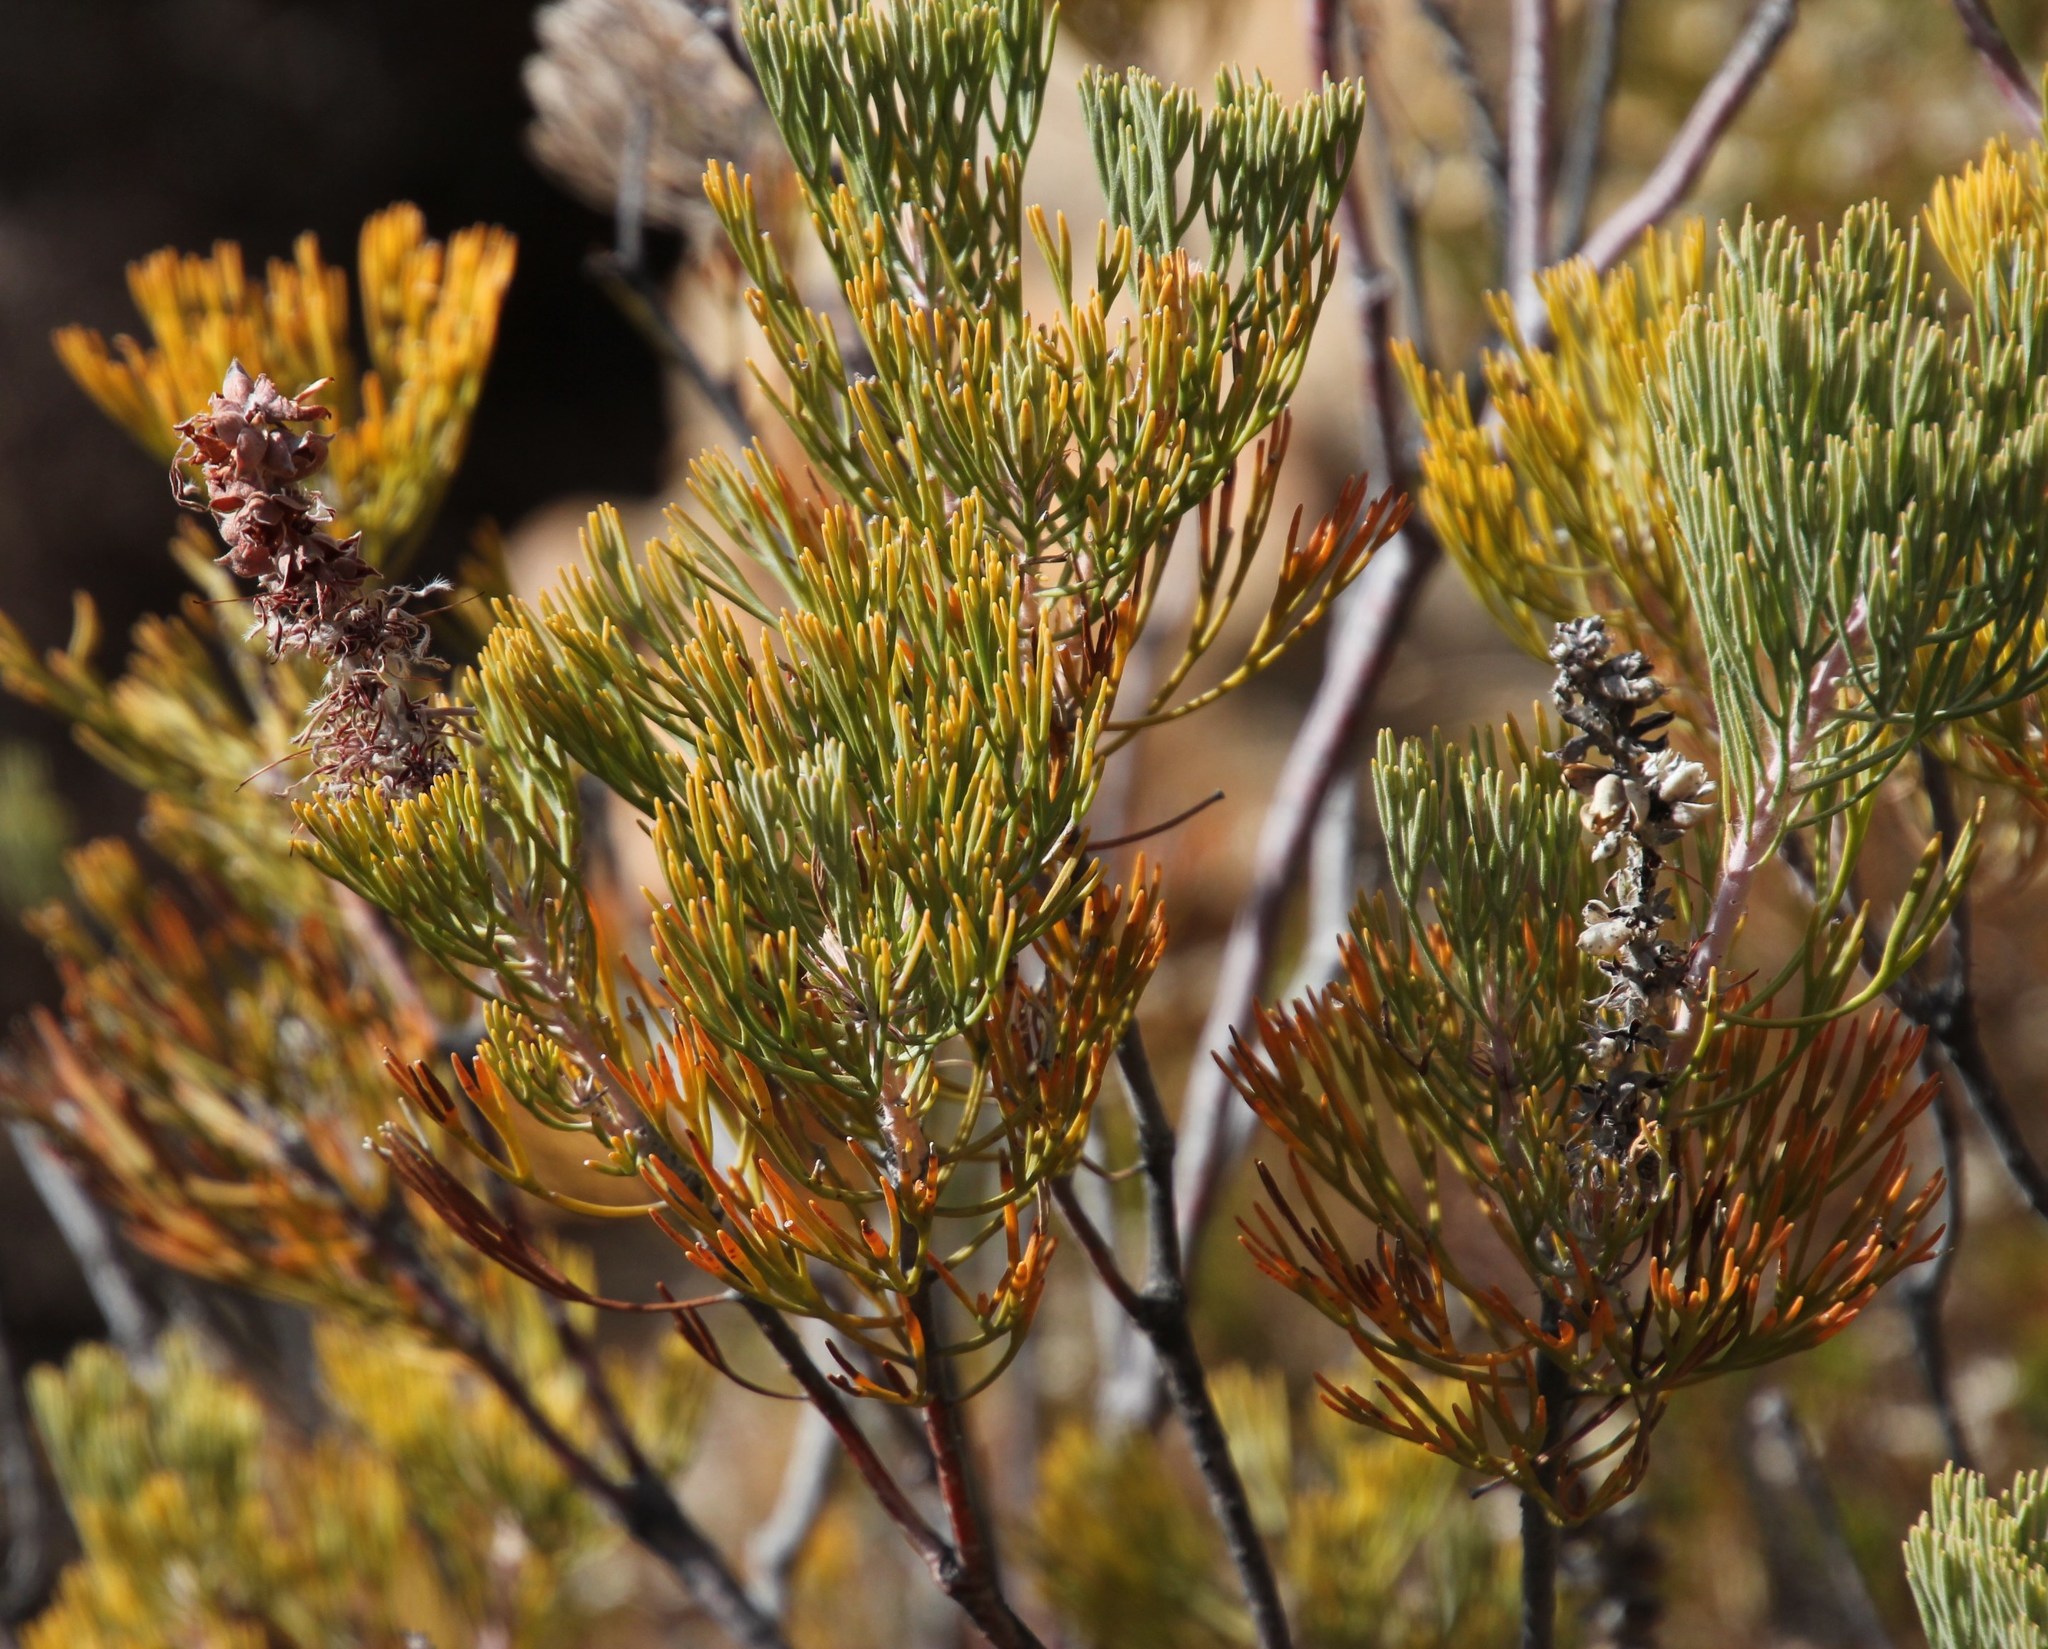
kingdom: Plantae
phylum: Tracheophyta
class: Magnoliopsida
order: Proteales
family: Proteaceae
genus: Paranomus
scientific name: Paranomus bracteolaris
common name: Bokkeveld tree sceptre
